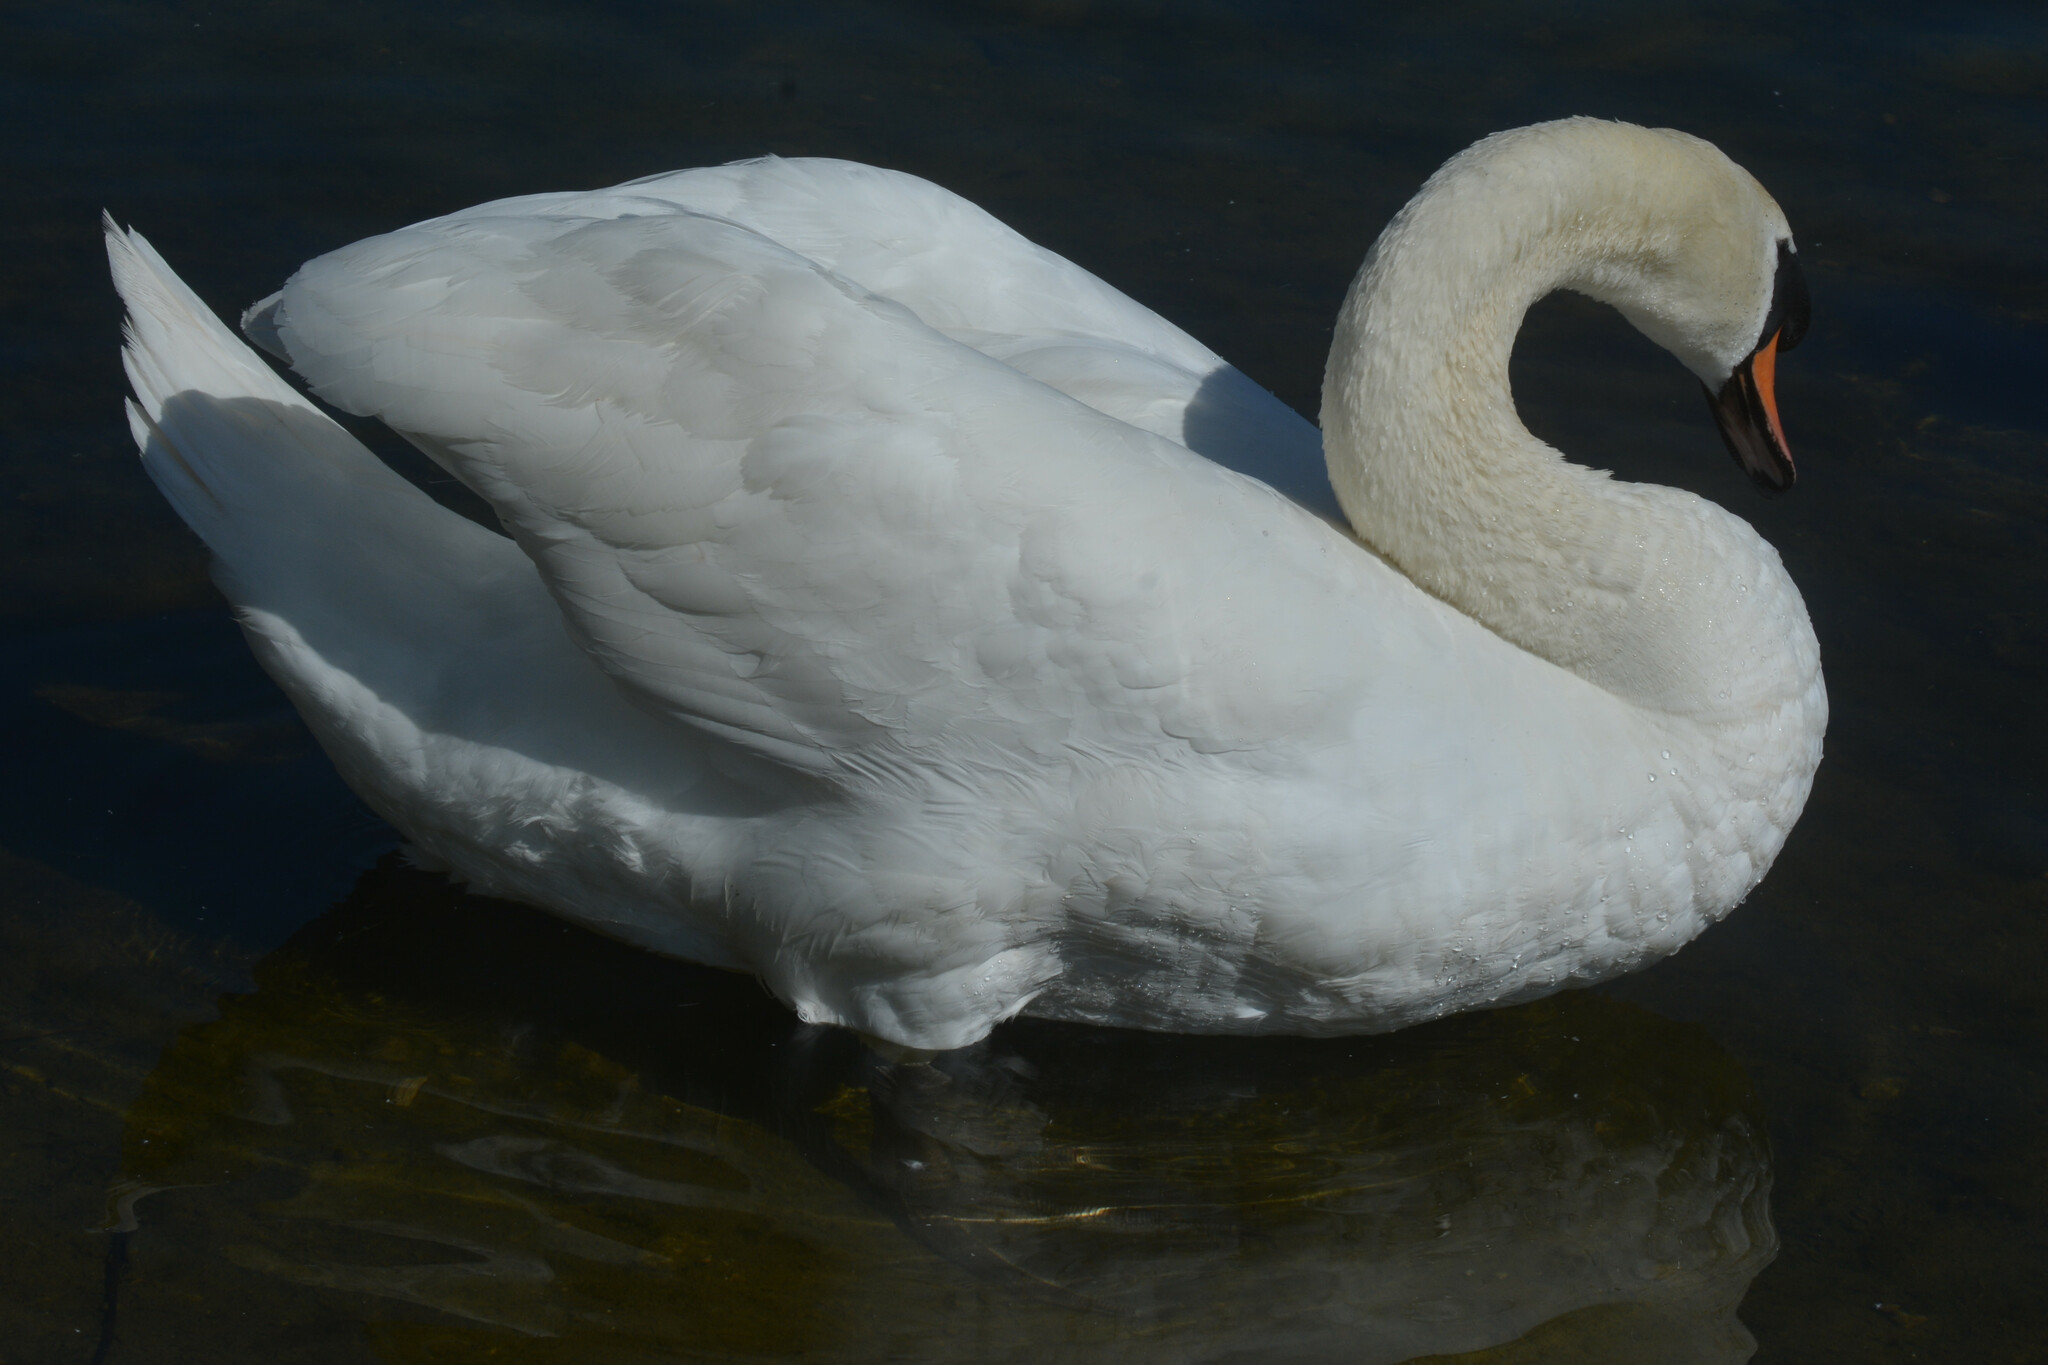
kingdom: Animalia
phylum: Chordata
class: Aves
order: Anseriformes
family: Anatidae
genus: Cygnus
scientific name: Cygnus olor
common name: Mute swan
